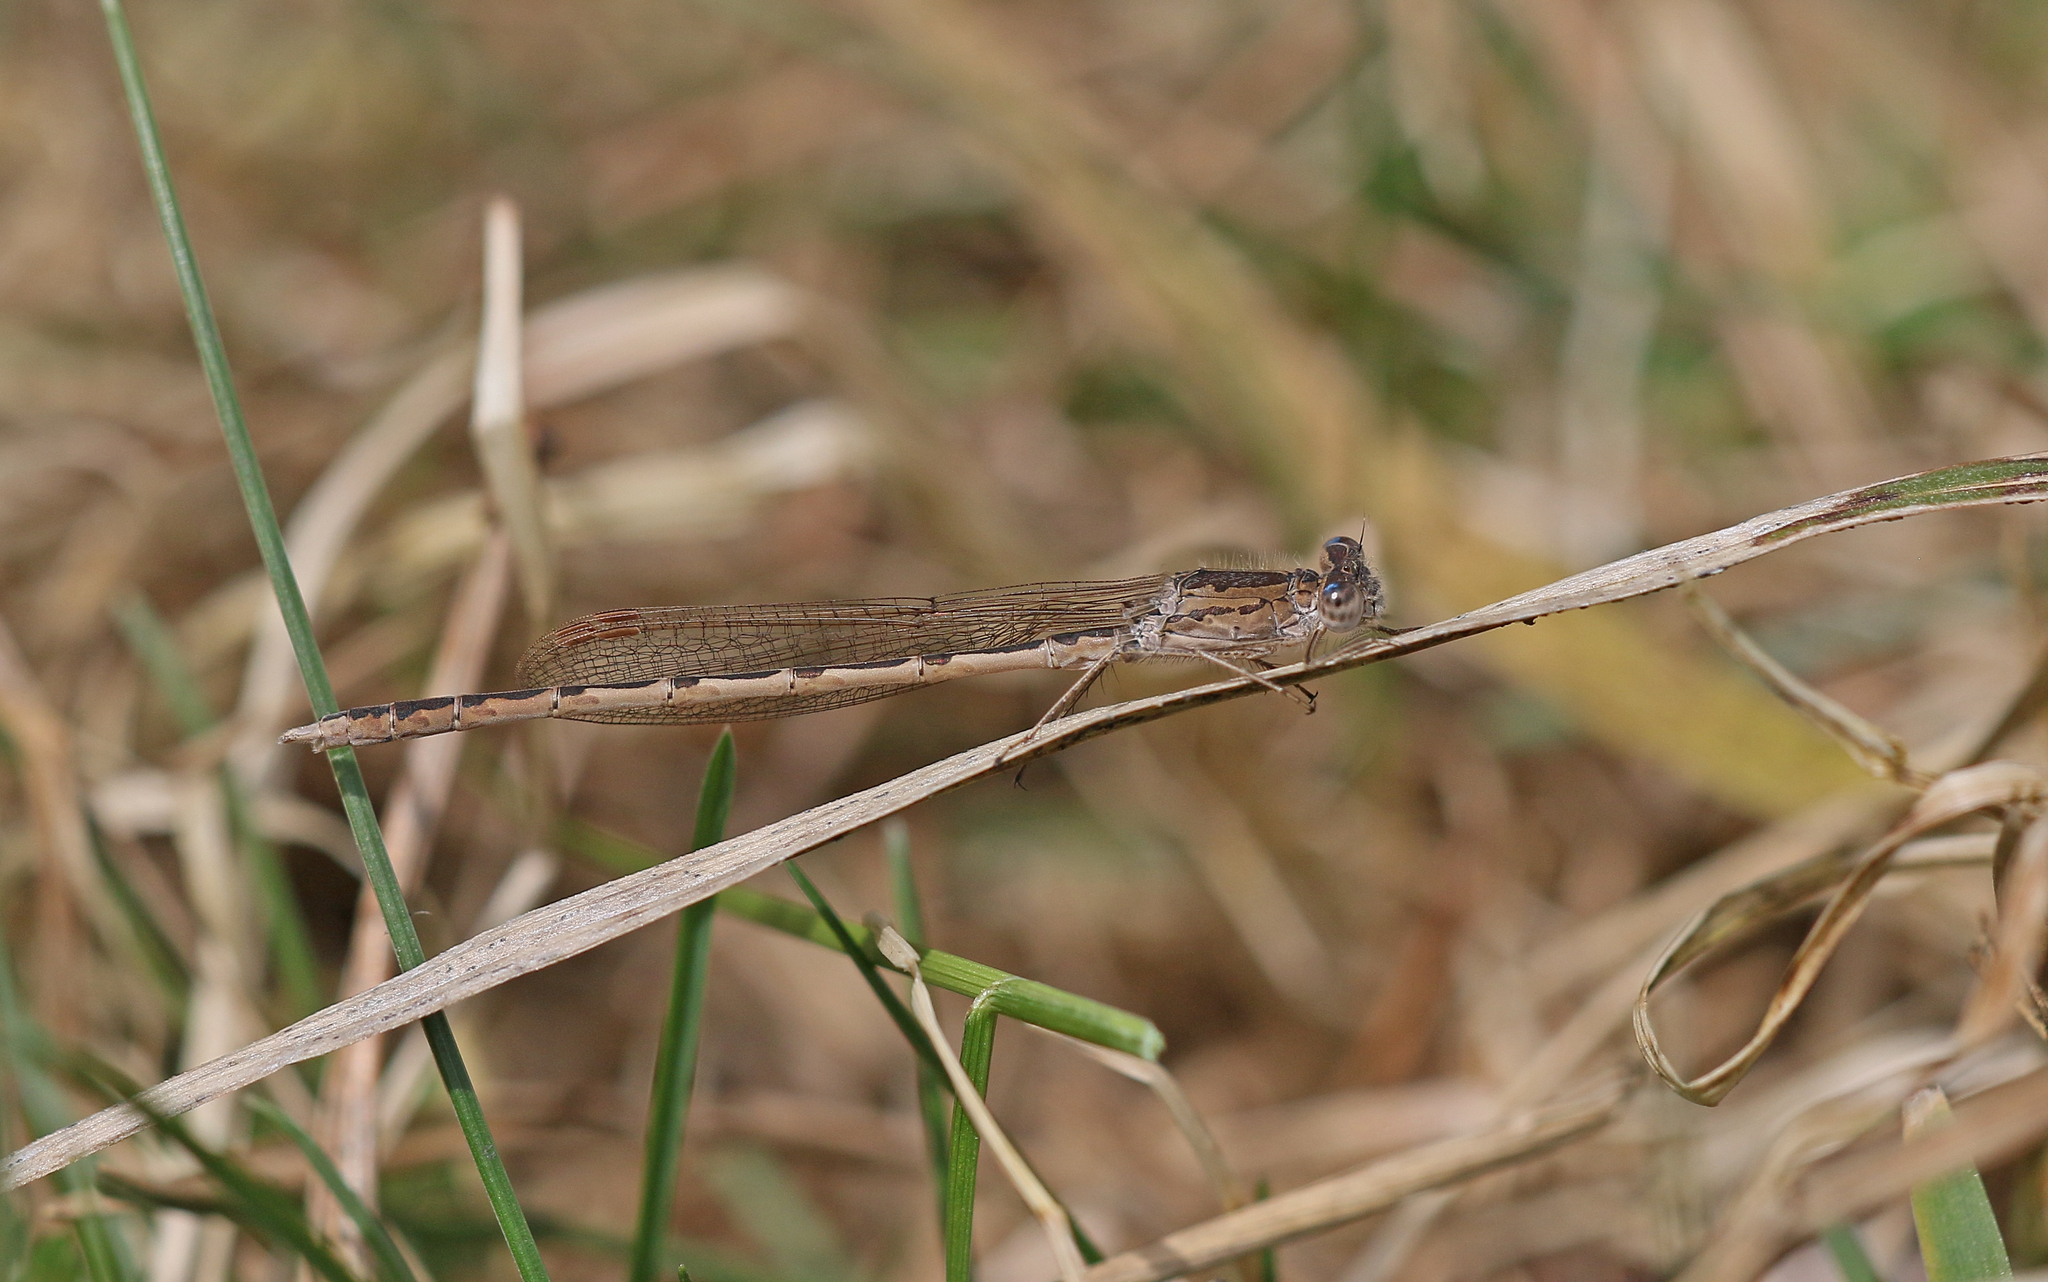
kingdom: Animalia
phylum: Arthropoda
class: Insecta
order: Odonata
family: Lestidae
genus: Sympecma
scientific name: Sympecma paedisca
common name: Siberian winter damsel
